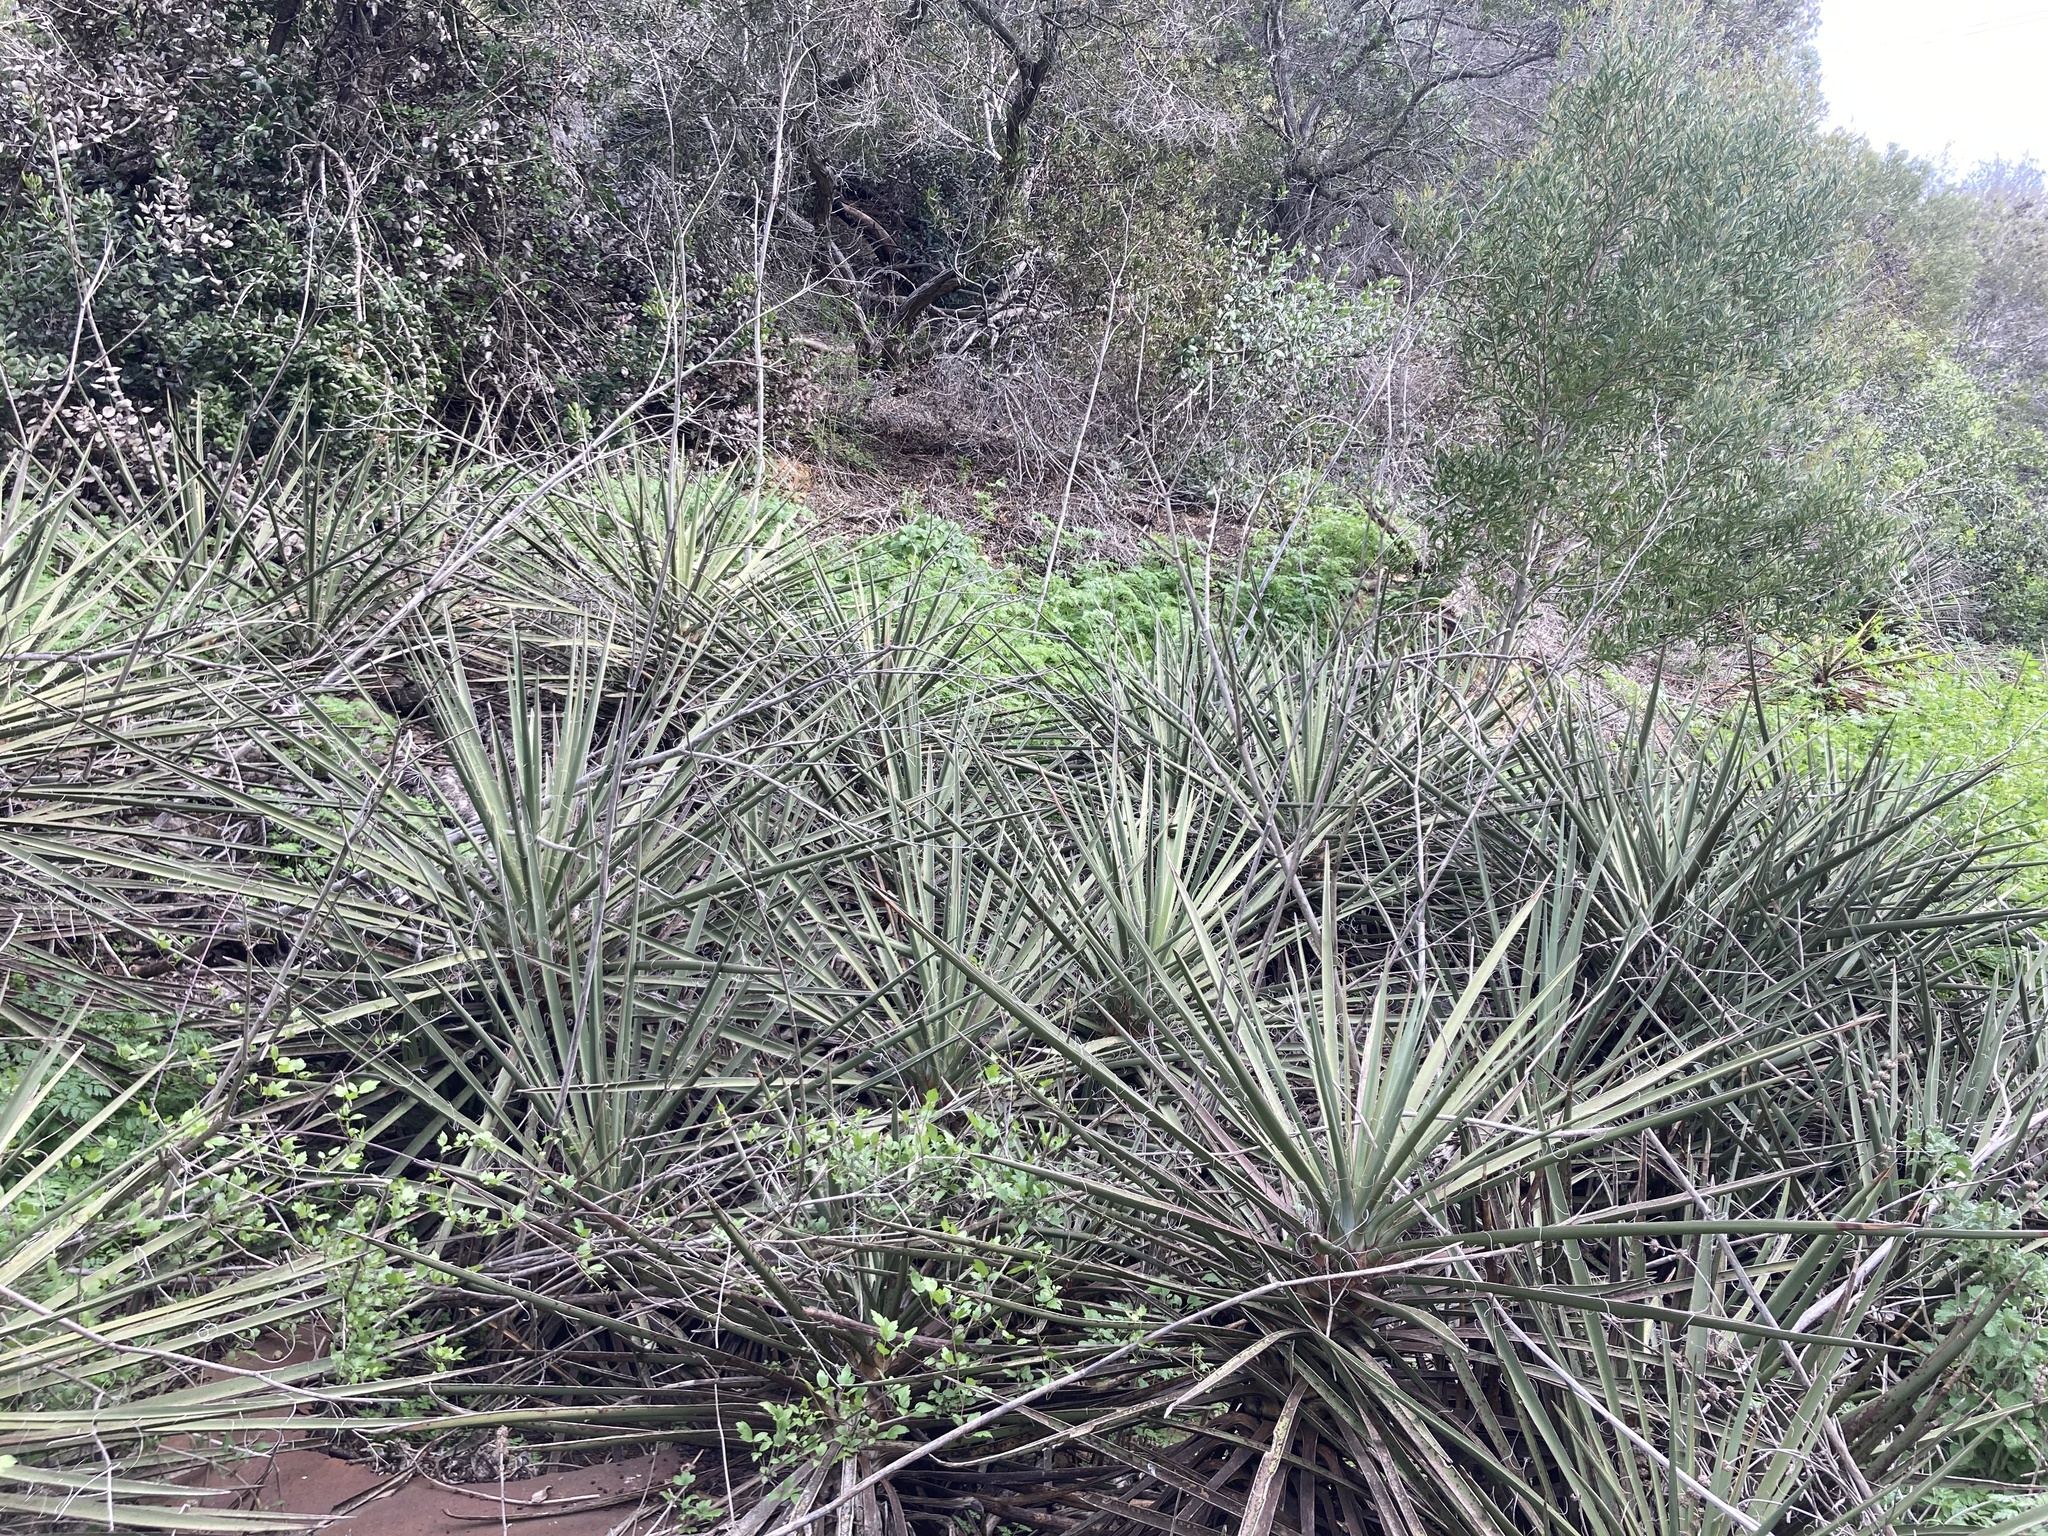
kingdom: Plantae
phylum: Tracheophyta
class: Liliopsida
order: Asparagales
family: Asparagaceae
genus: Yucca
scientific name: Yucca schidigera
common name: Mojave yucca
